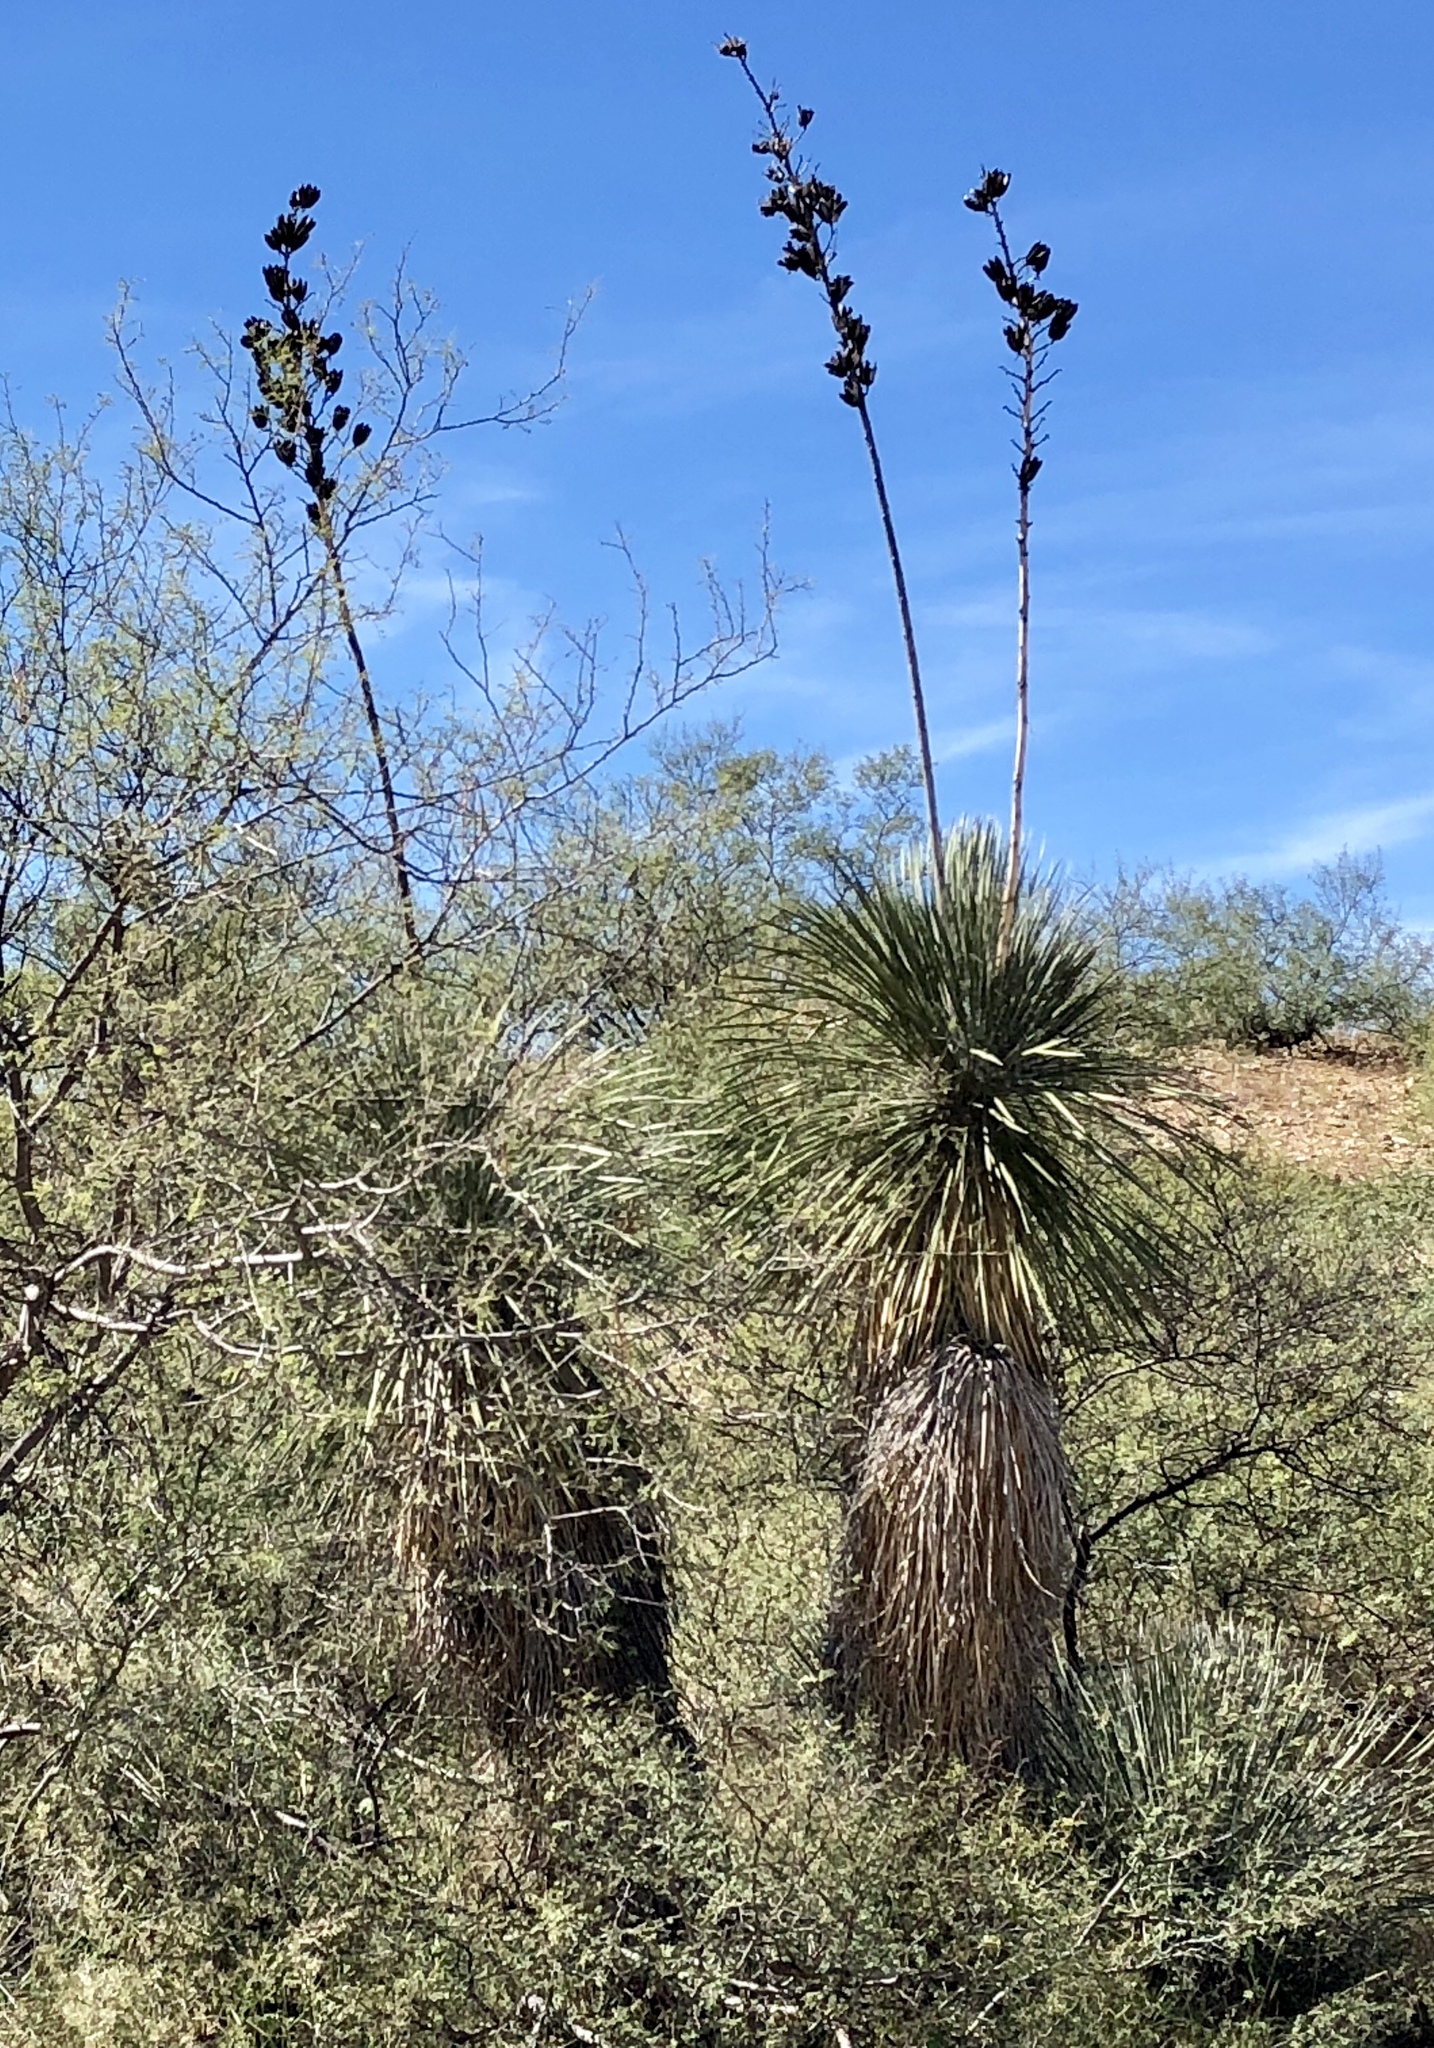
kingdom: Plantae
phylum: Tracheophyta
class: Liliopsida
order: Asparagales
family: Asparagaceae
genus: Yucca
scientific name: Yucca elata
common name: Palmella
